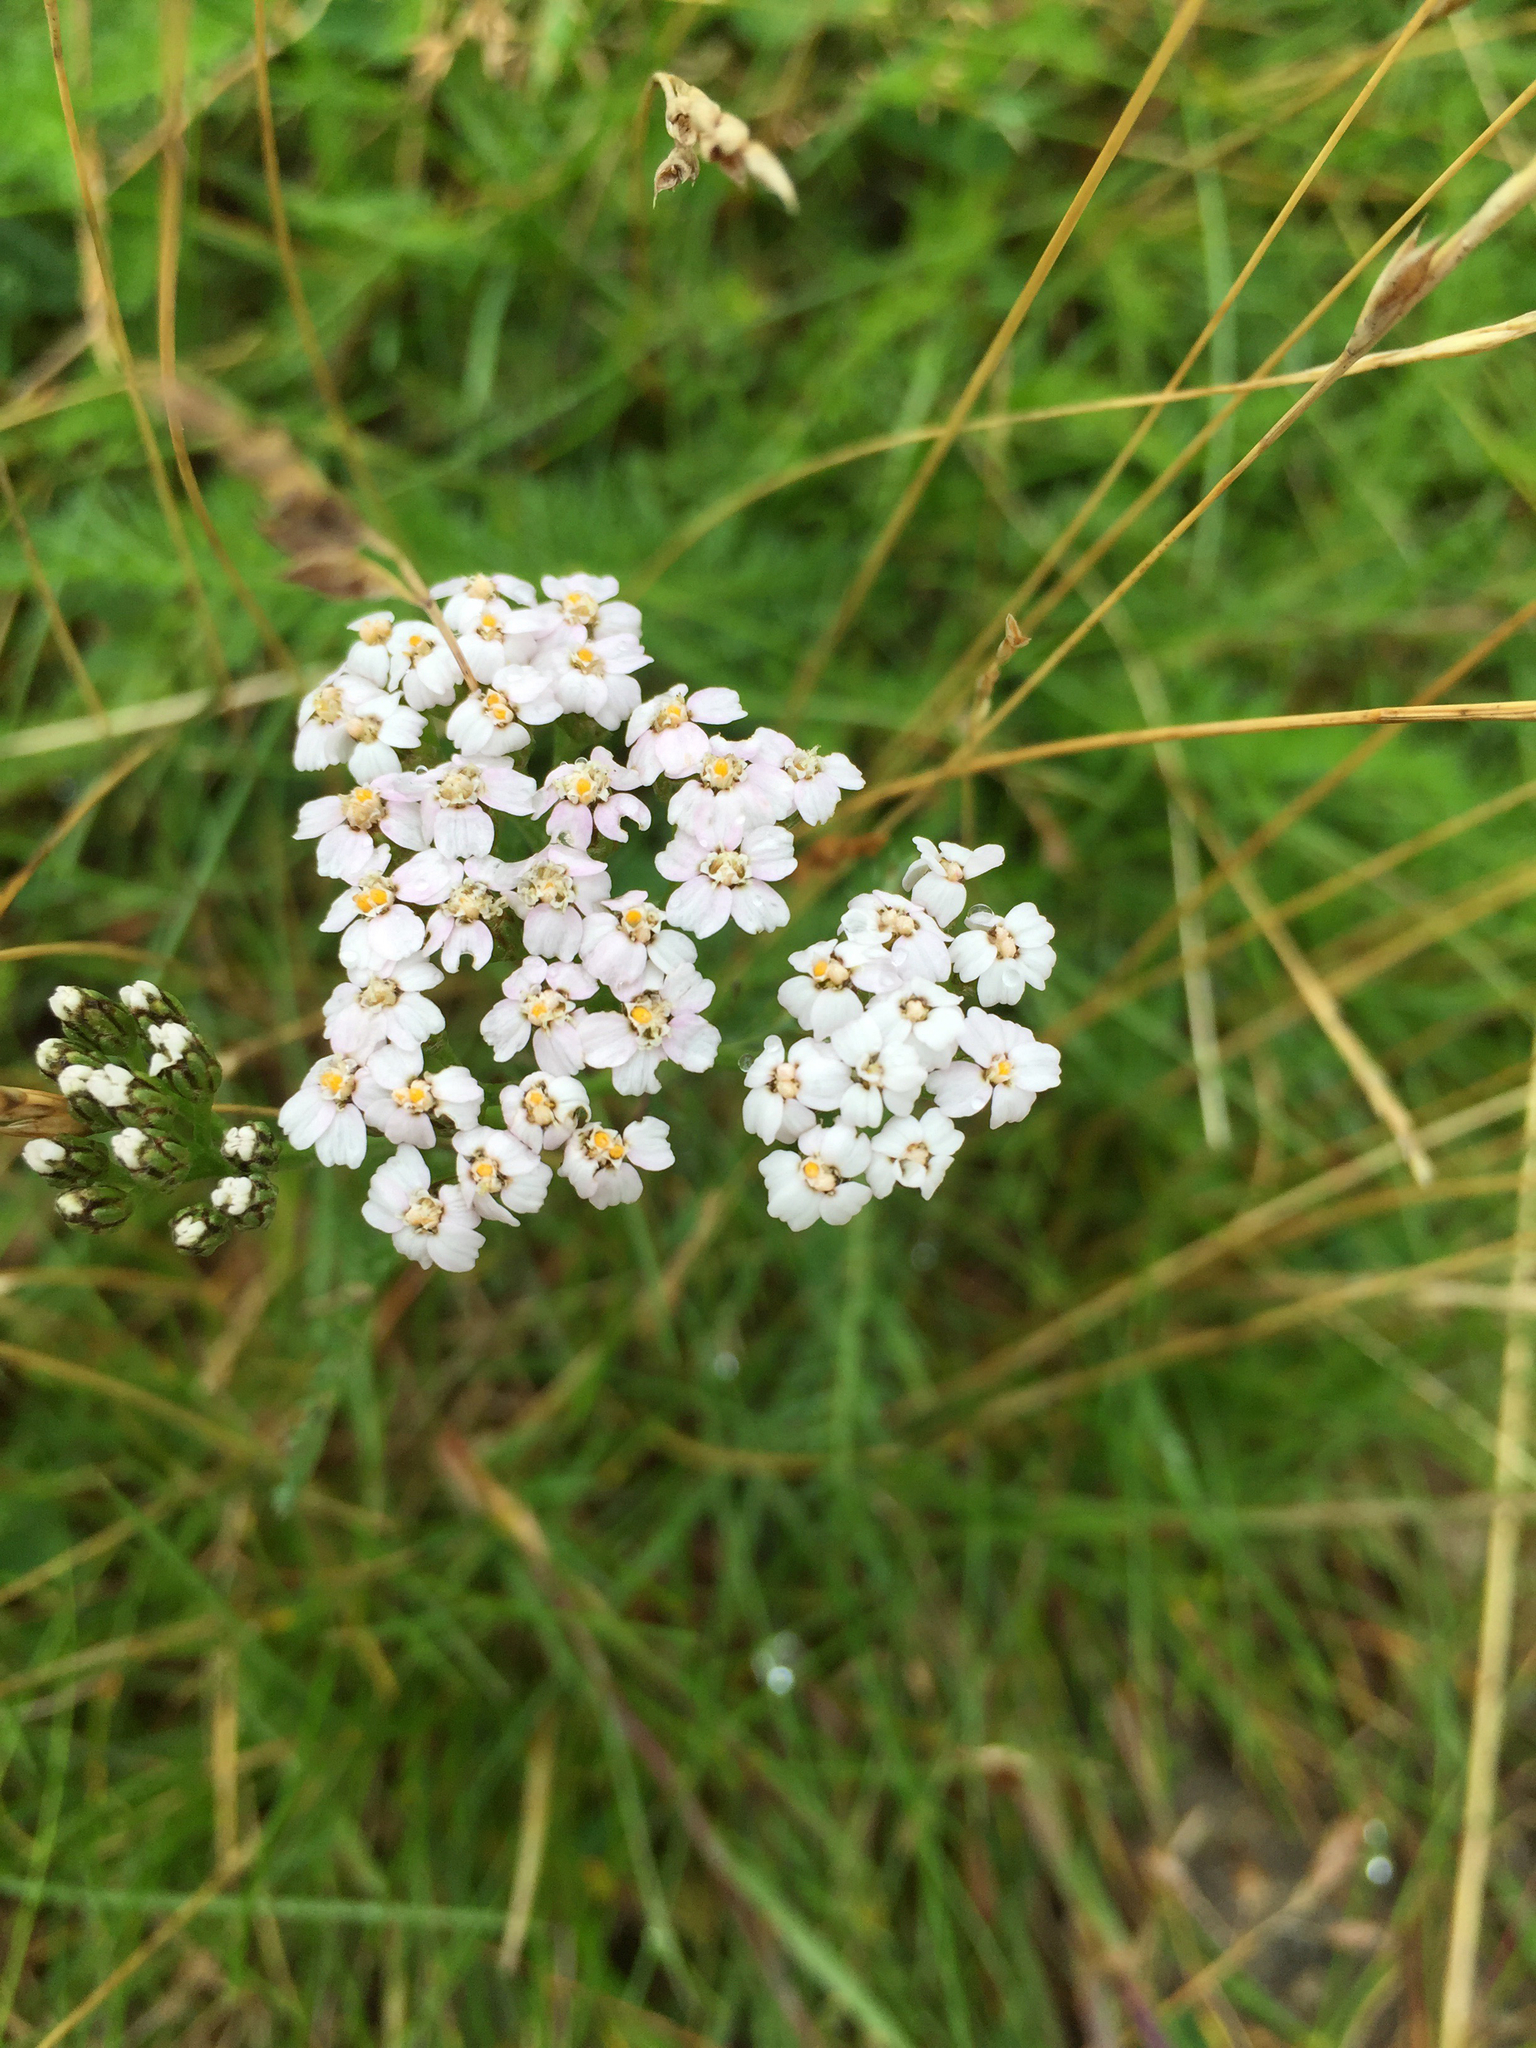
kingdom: Plantae
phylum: Tracheophyta
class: Magnoliopsida
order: Asterales
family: Asteraceae
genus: Achillea
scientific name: Achillea millefolium
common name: Yarrow
